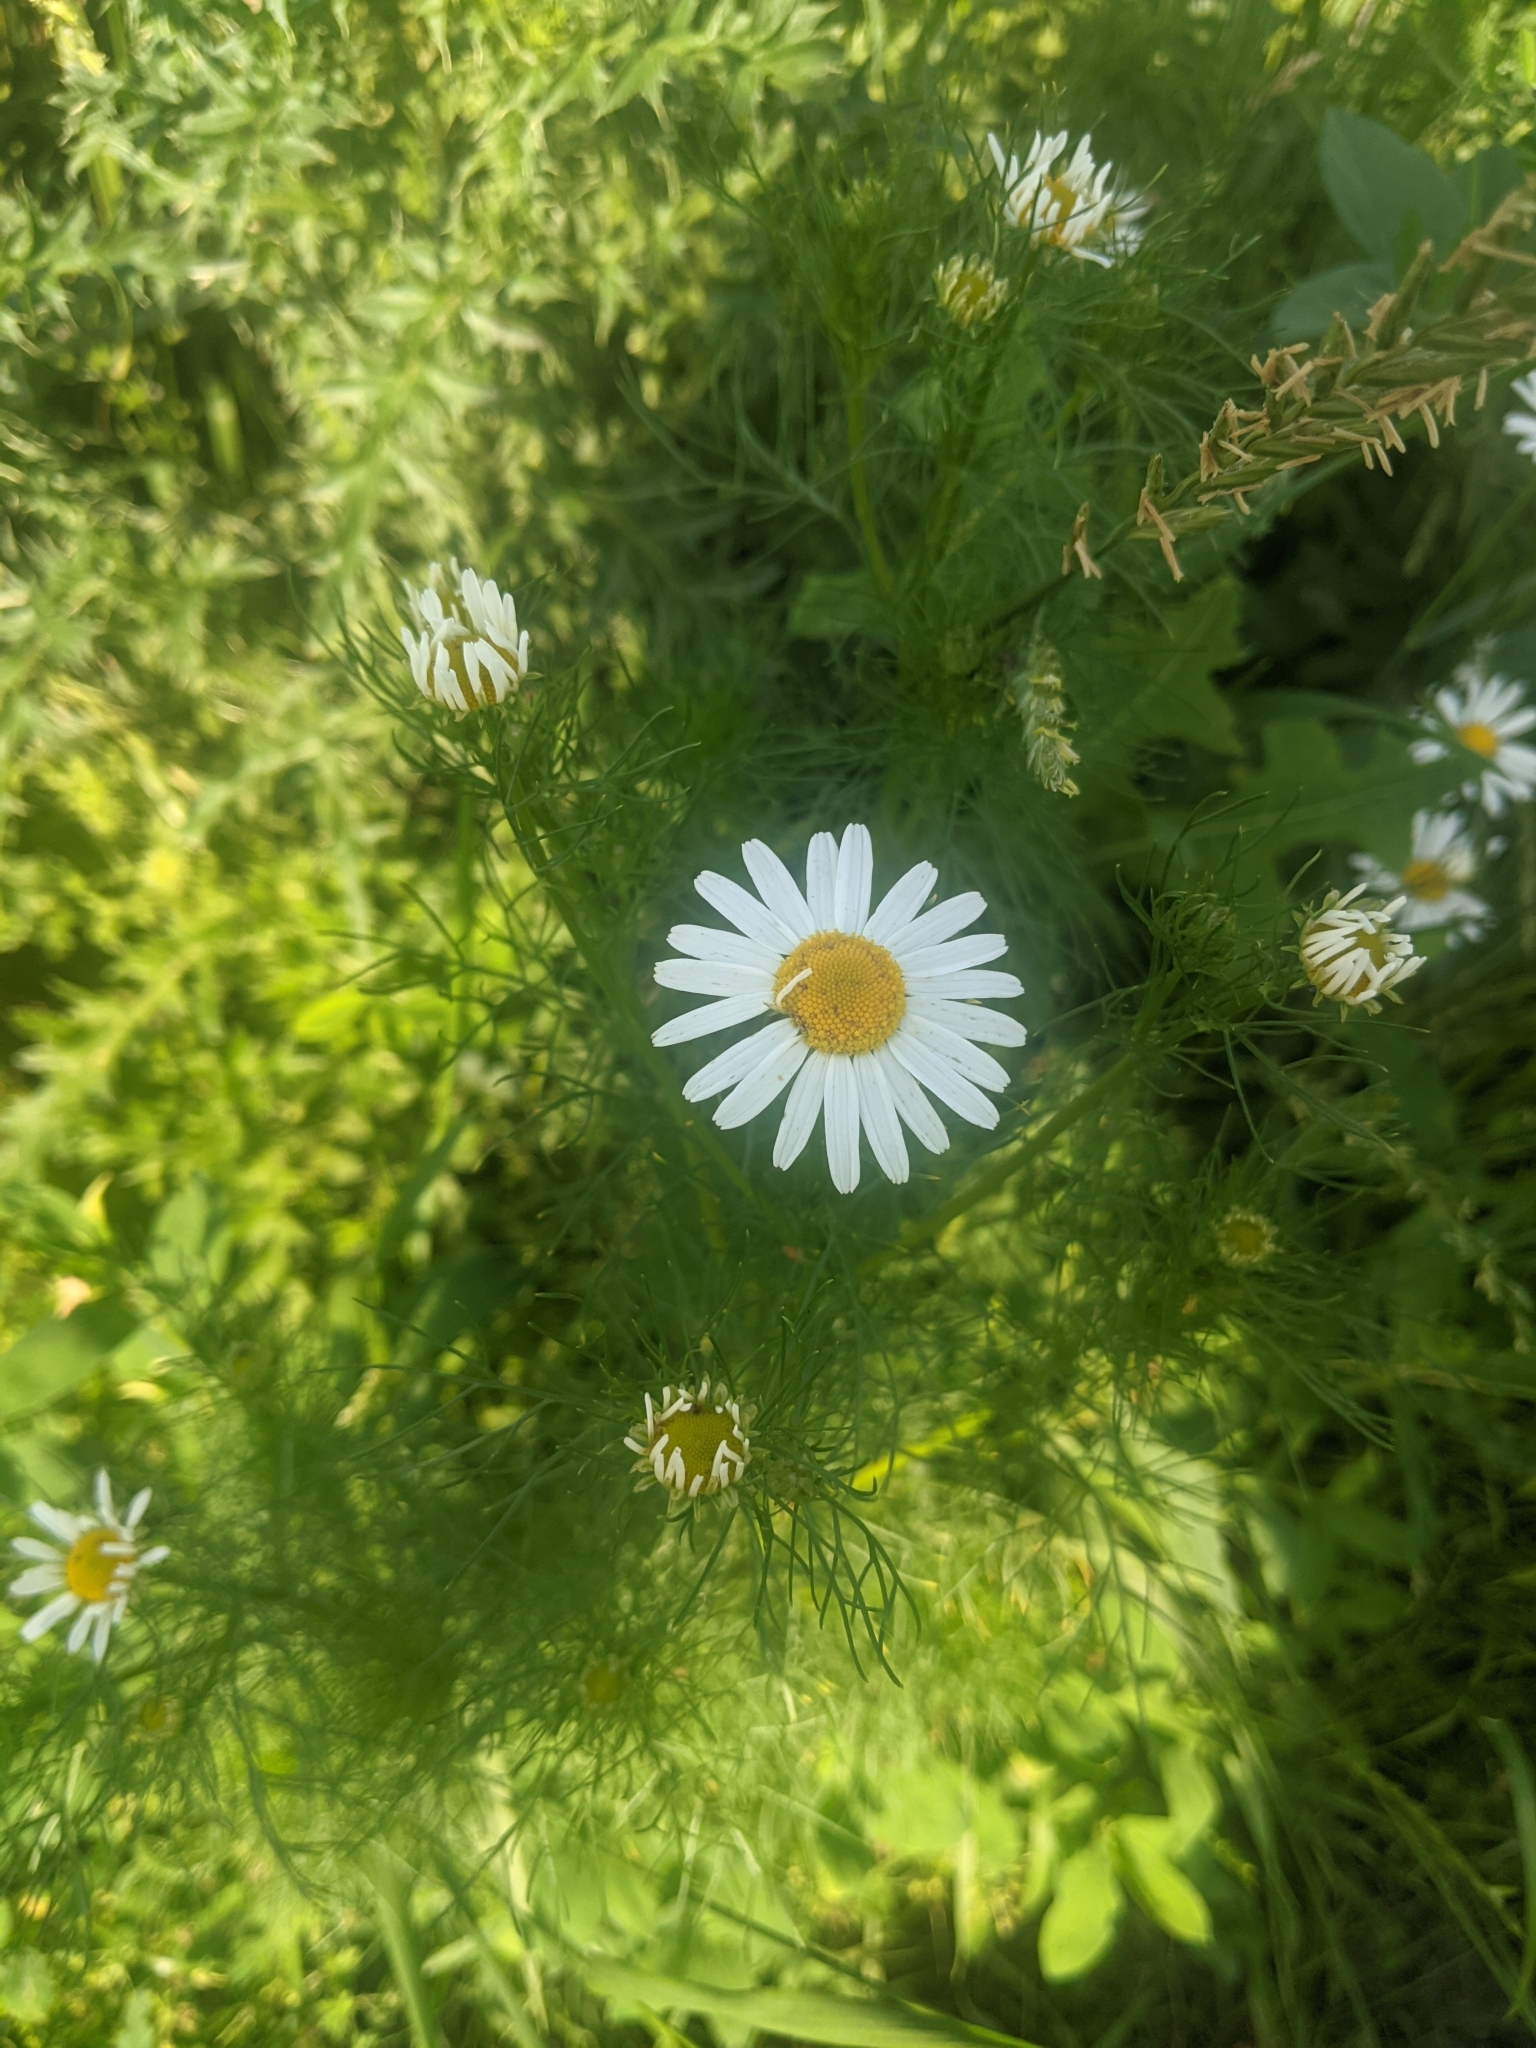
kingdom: Plantae
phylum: Tracheophyta
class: Magnoliopsida
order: Asterales
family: Asteraceae
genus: Leucanthemum
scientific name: Leucanthemum vulgare
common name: Oxeye daisy
